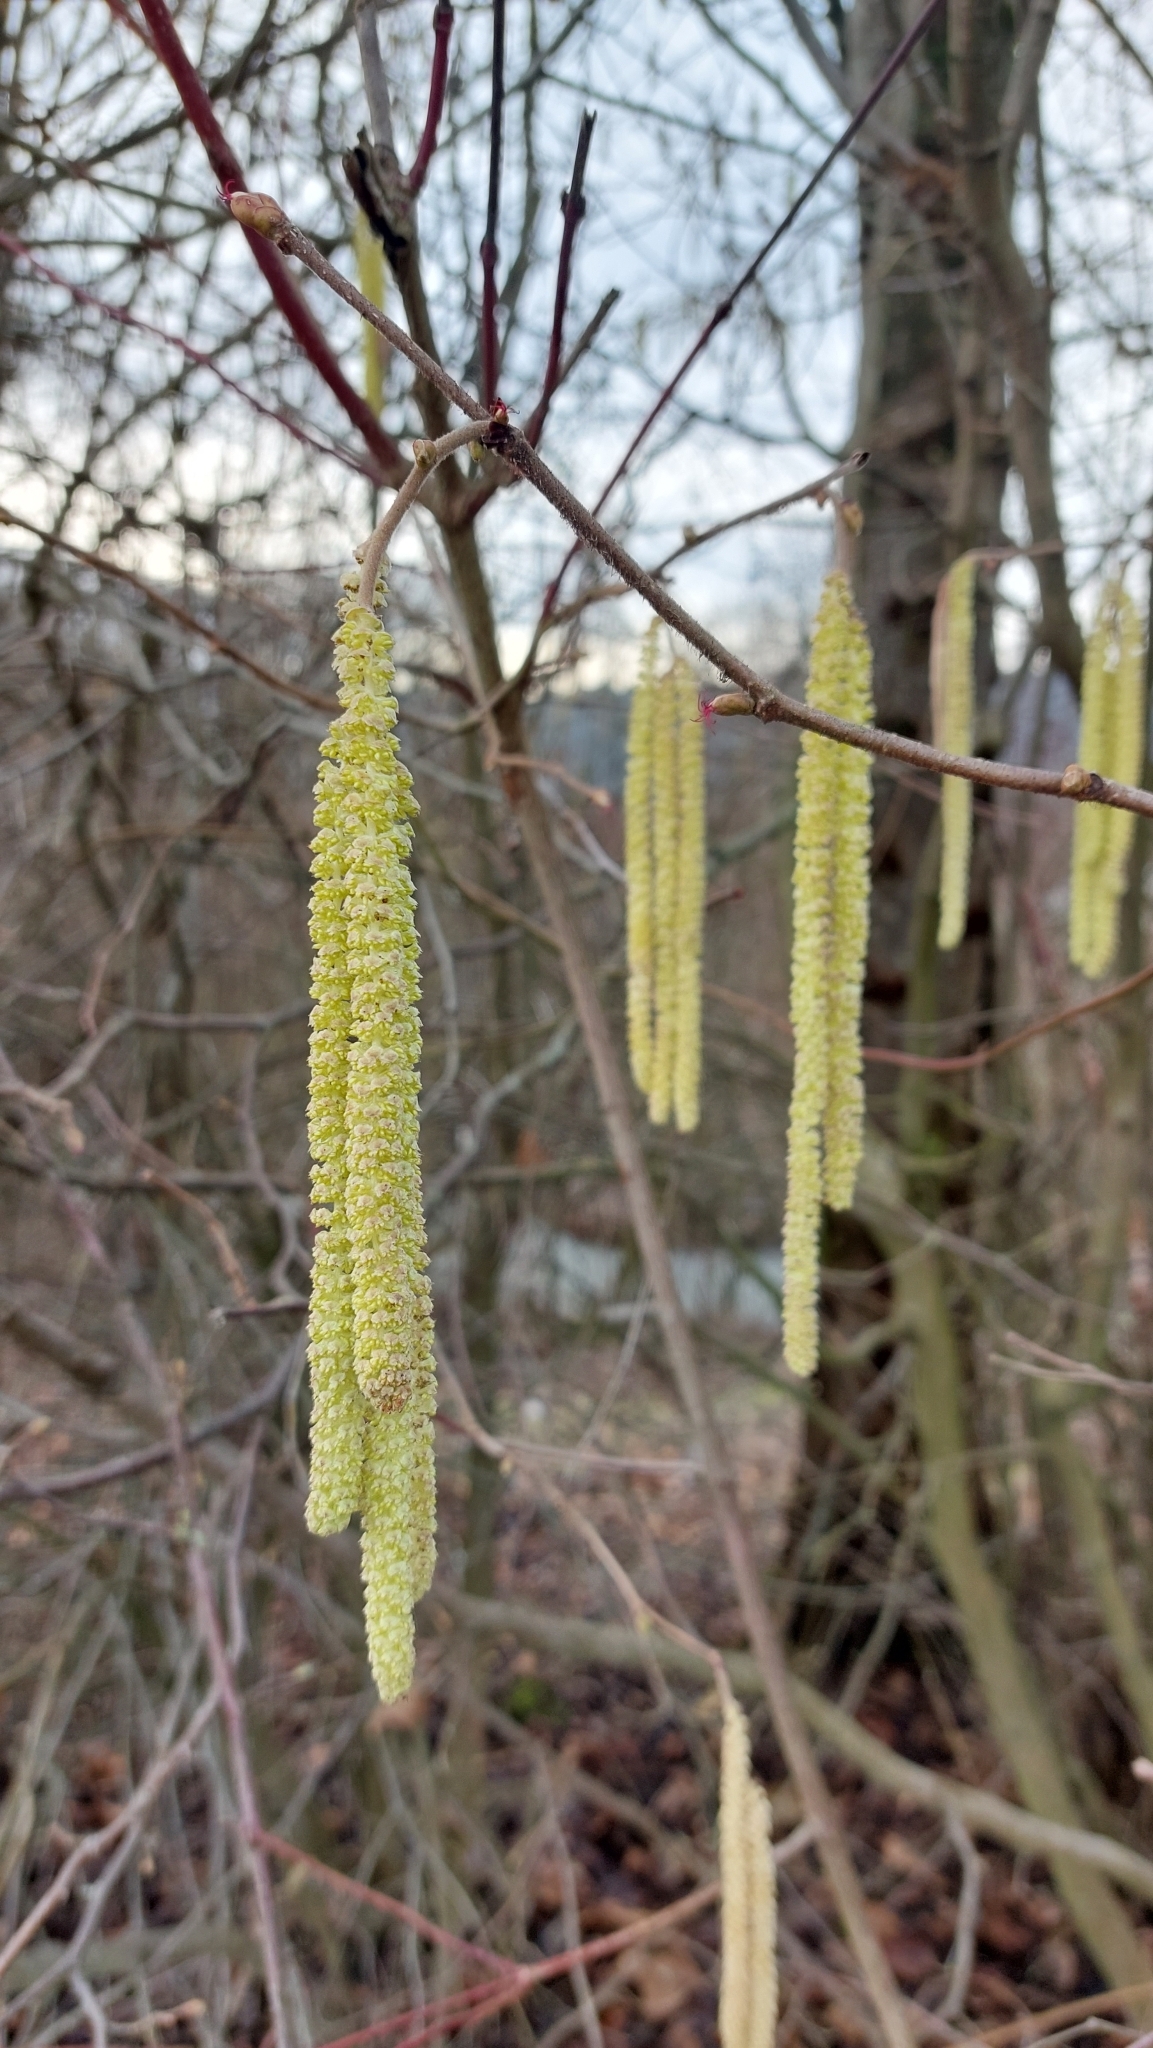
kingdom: Plantae
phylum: Tracheophyta
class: Magnoliopsida
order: Fagales
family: Betulaceae
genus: Corylus
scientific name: Corylus avellana
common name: European hazel
